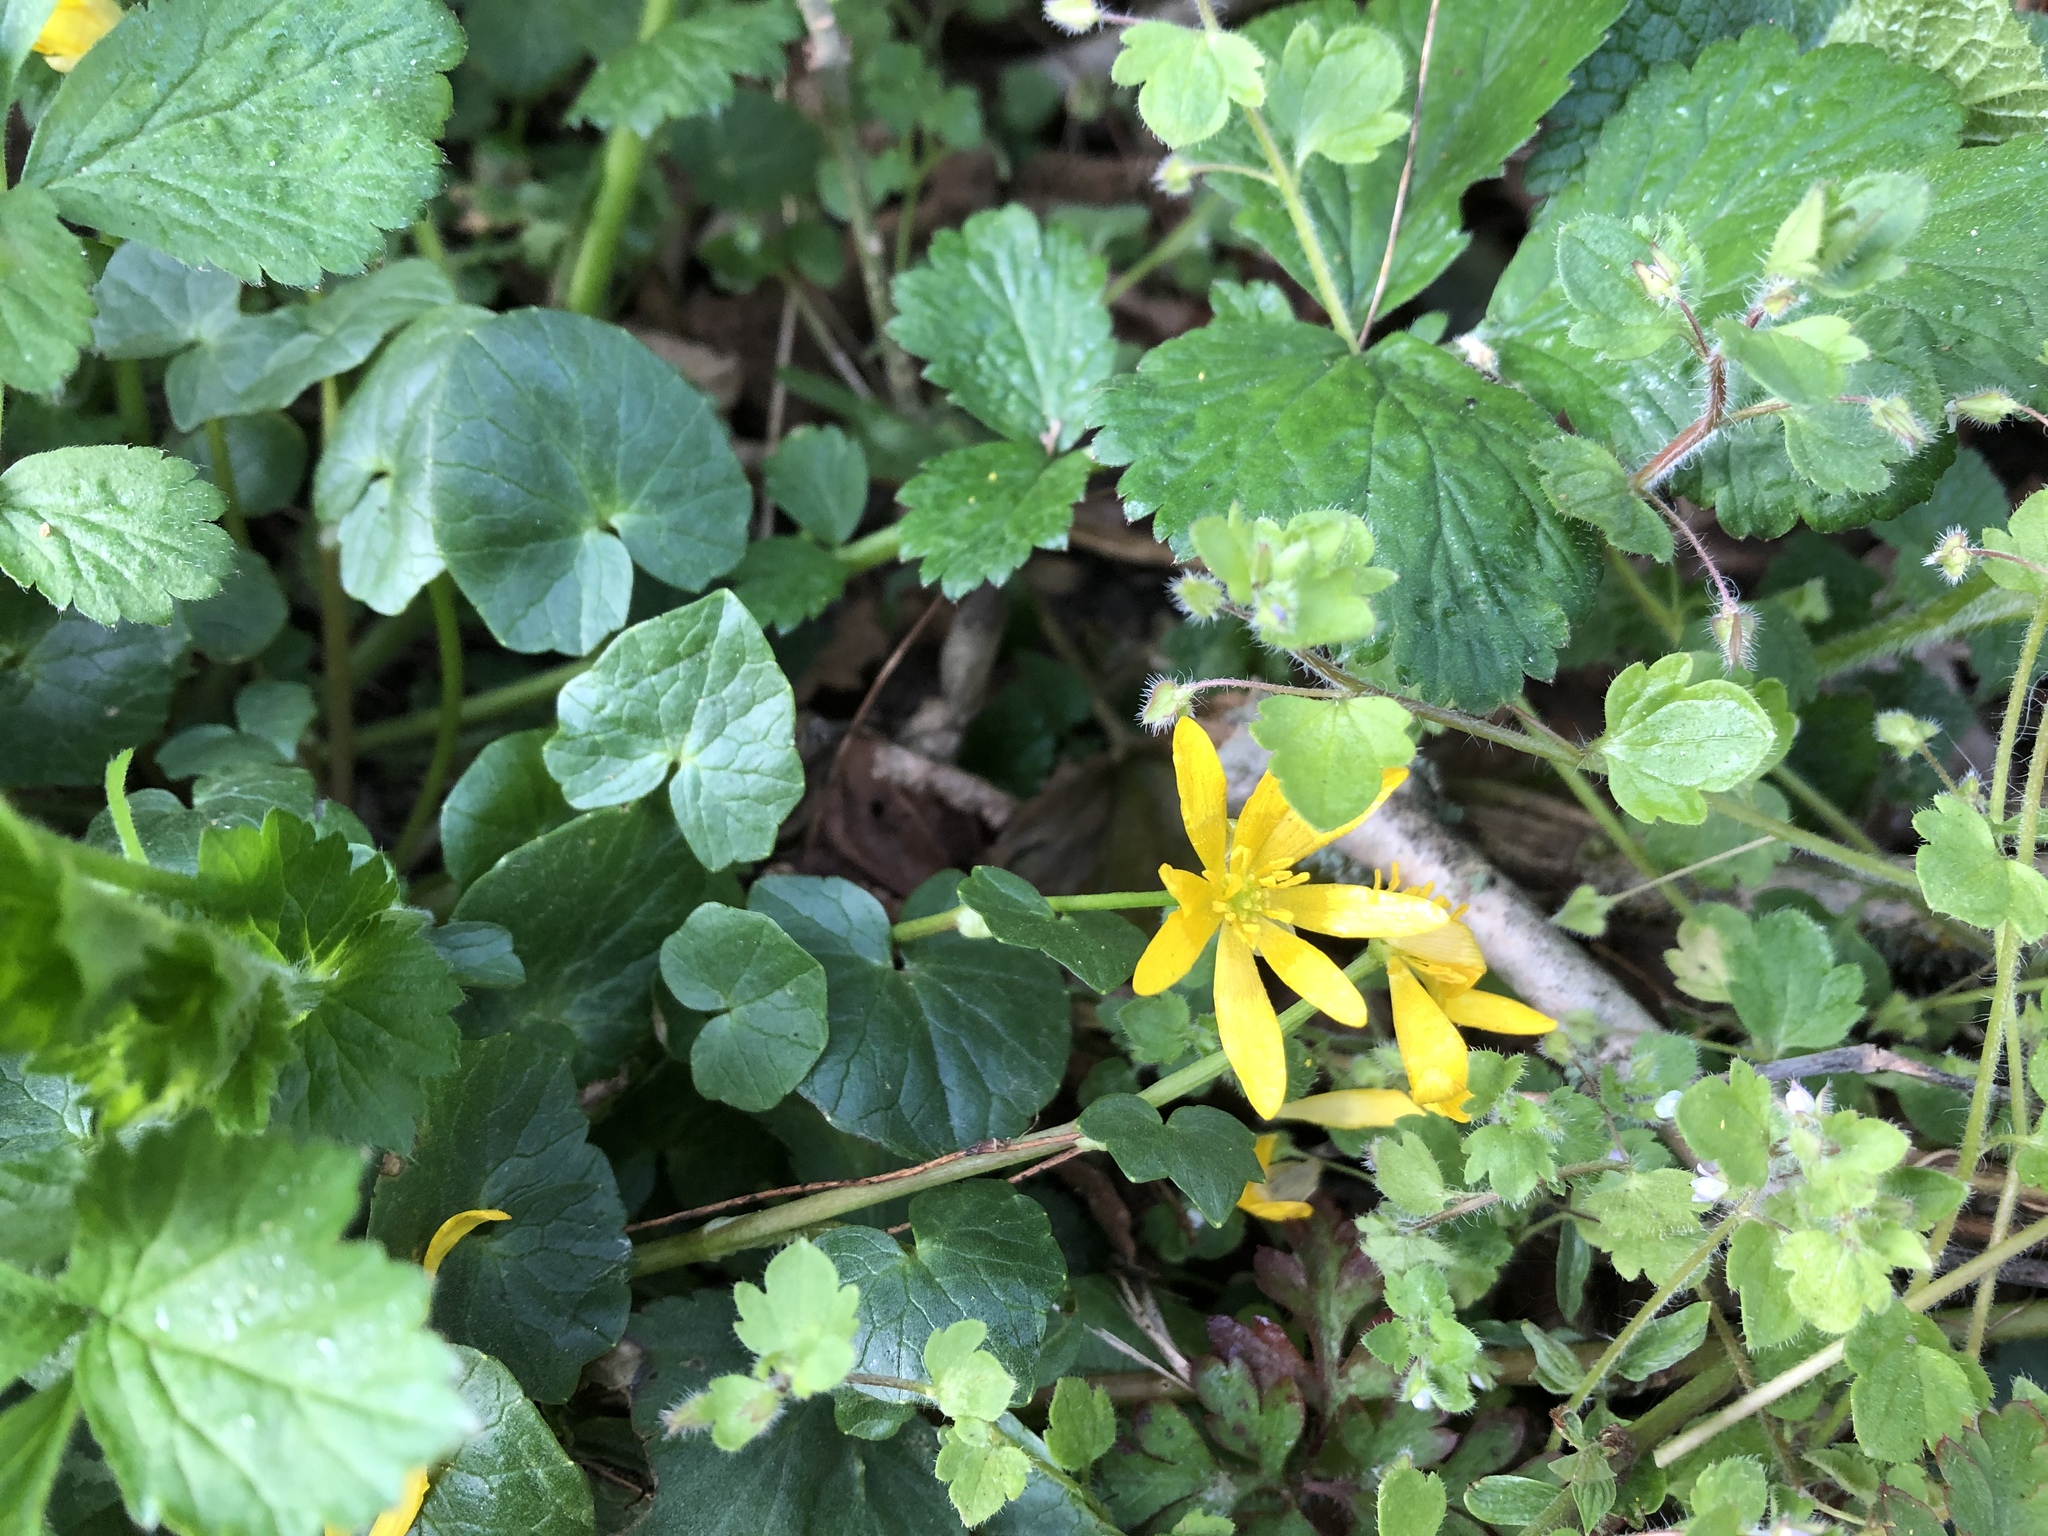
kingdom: Plantae
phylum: Tracheophyta
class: Magnoliopsida
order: Ranunculales
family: Ranunculaceae
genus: Ficaria
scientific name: Ficaria verna
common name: Lesser celandine
